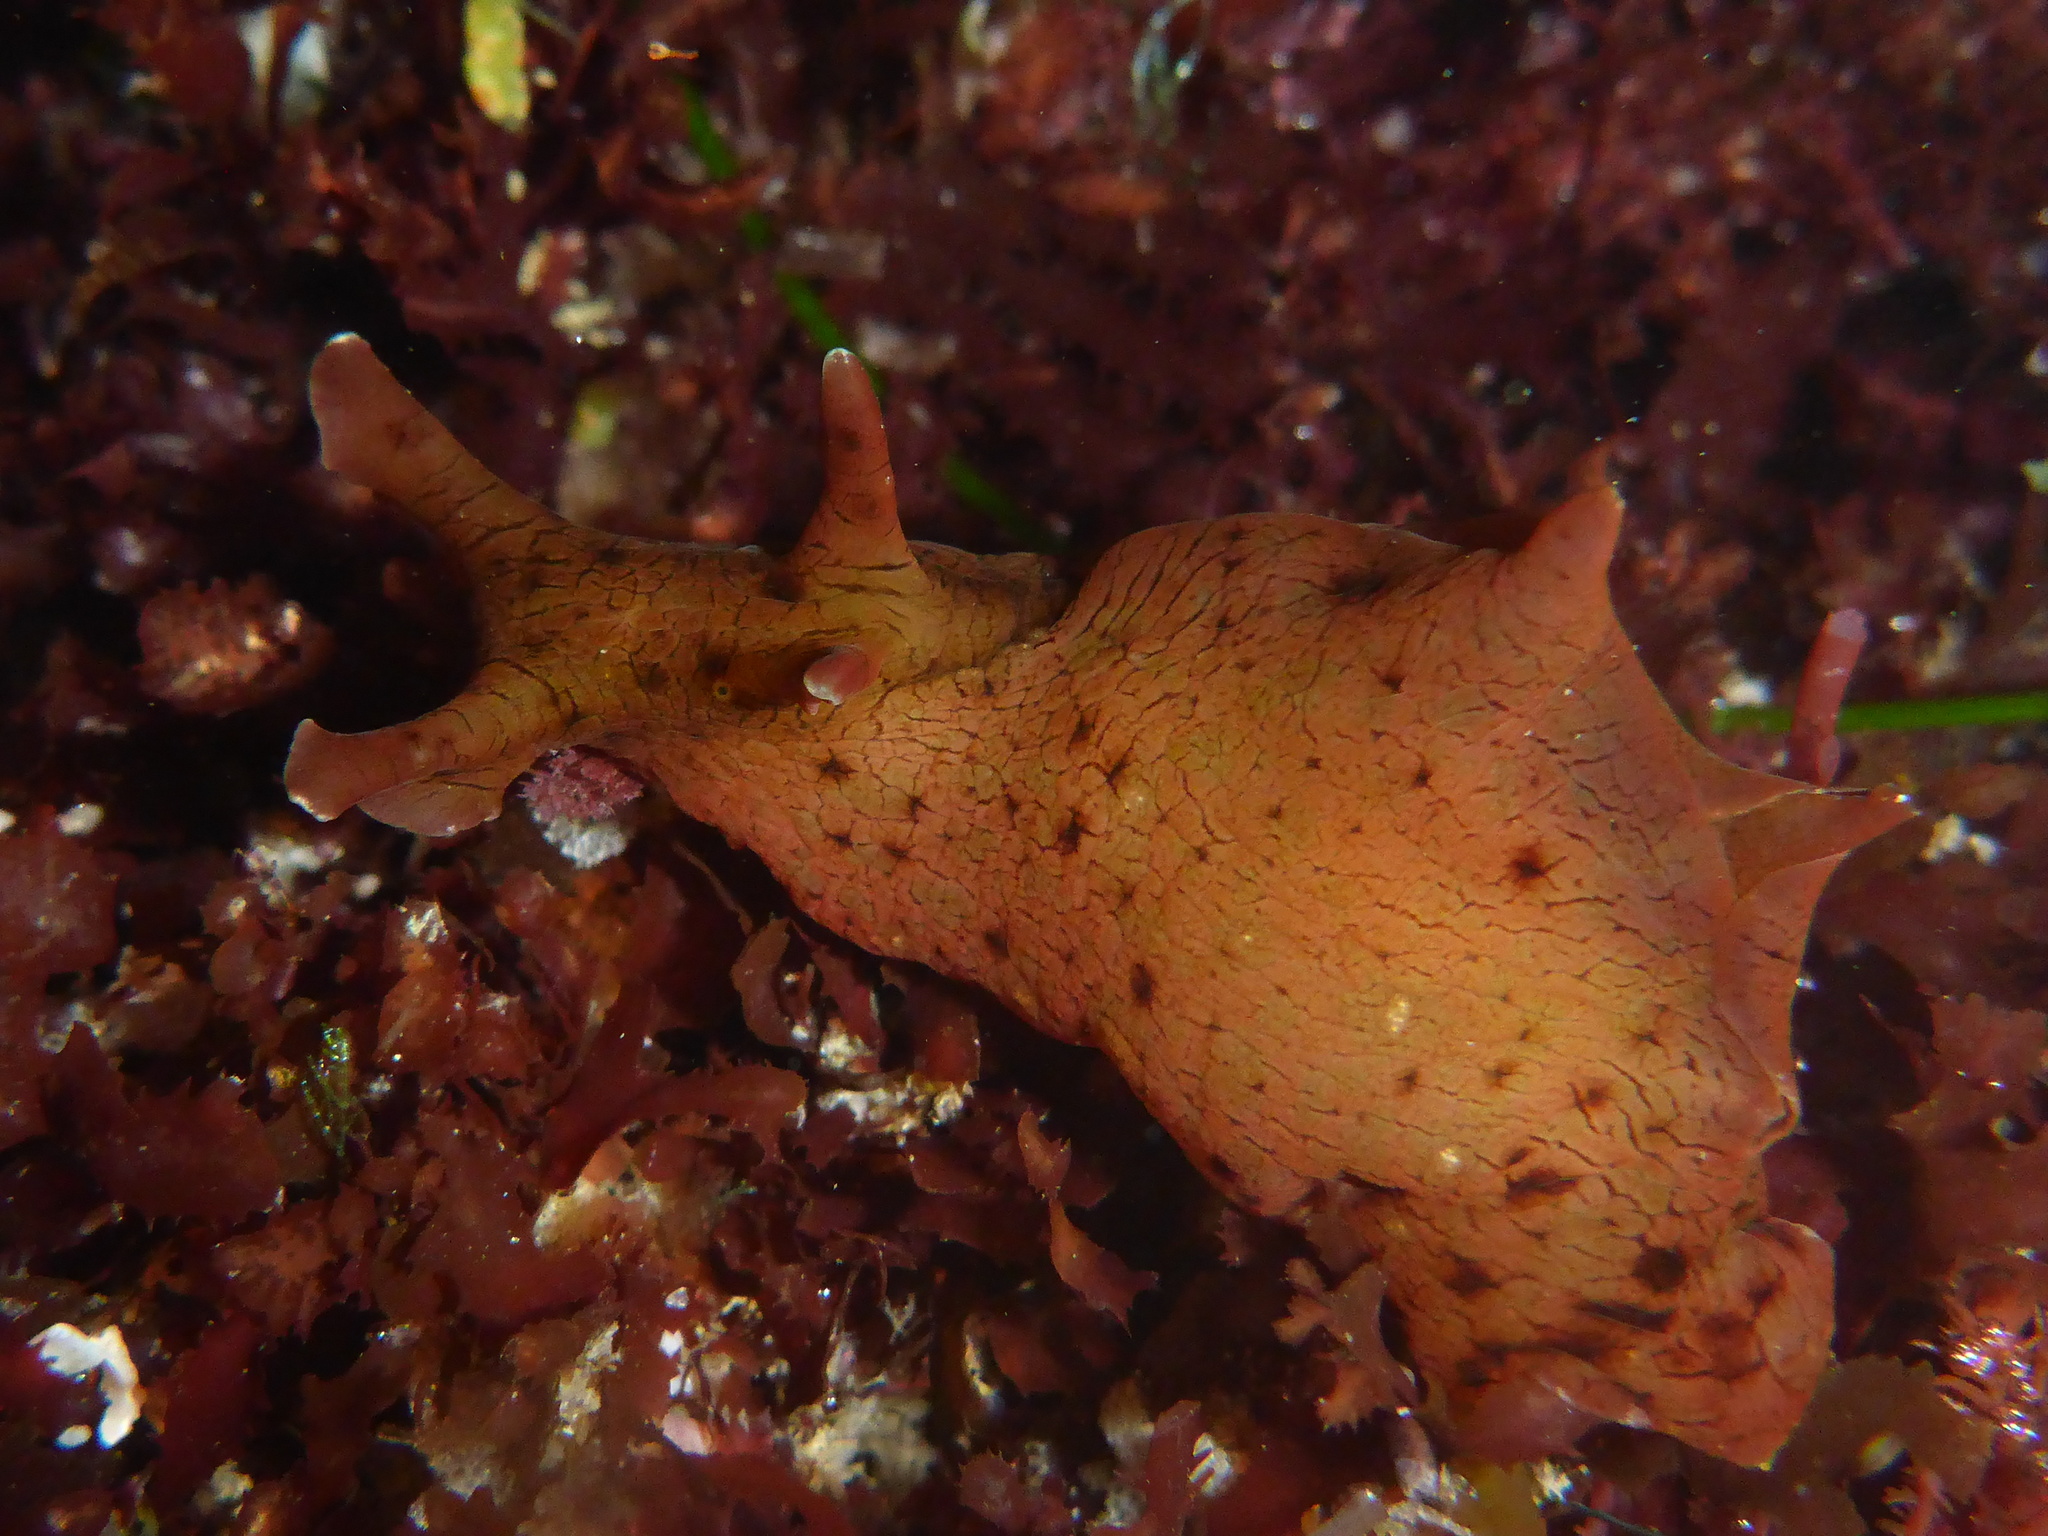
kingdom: Animalia
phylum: Mollusca
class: Gastropoda
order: Aplysiida
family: Aplysiidae
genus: Aplysia
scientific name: Aplysia californica
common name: California seahare
